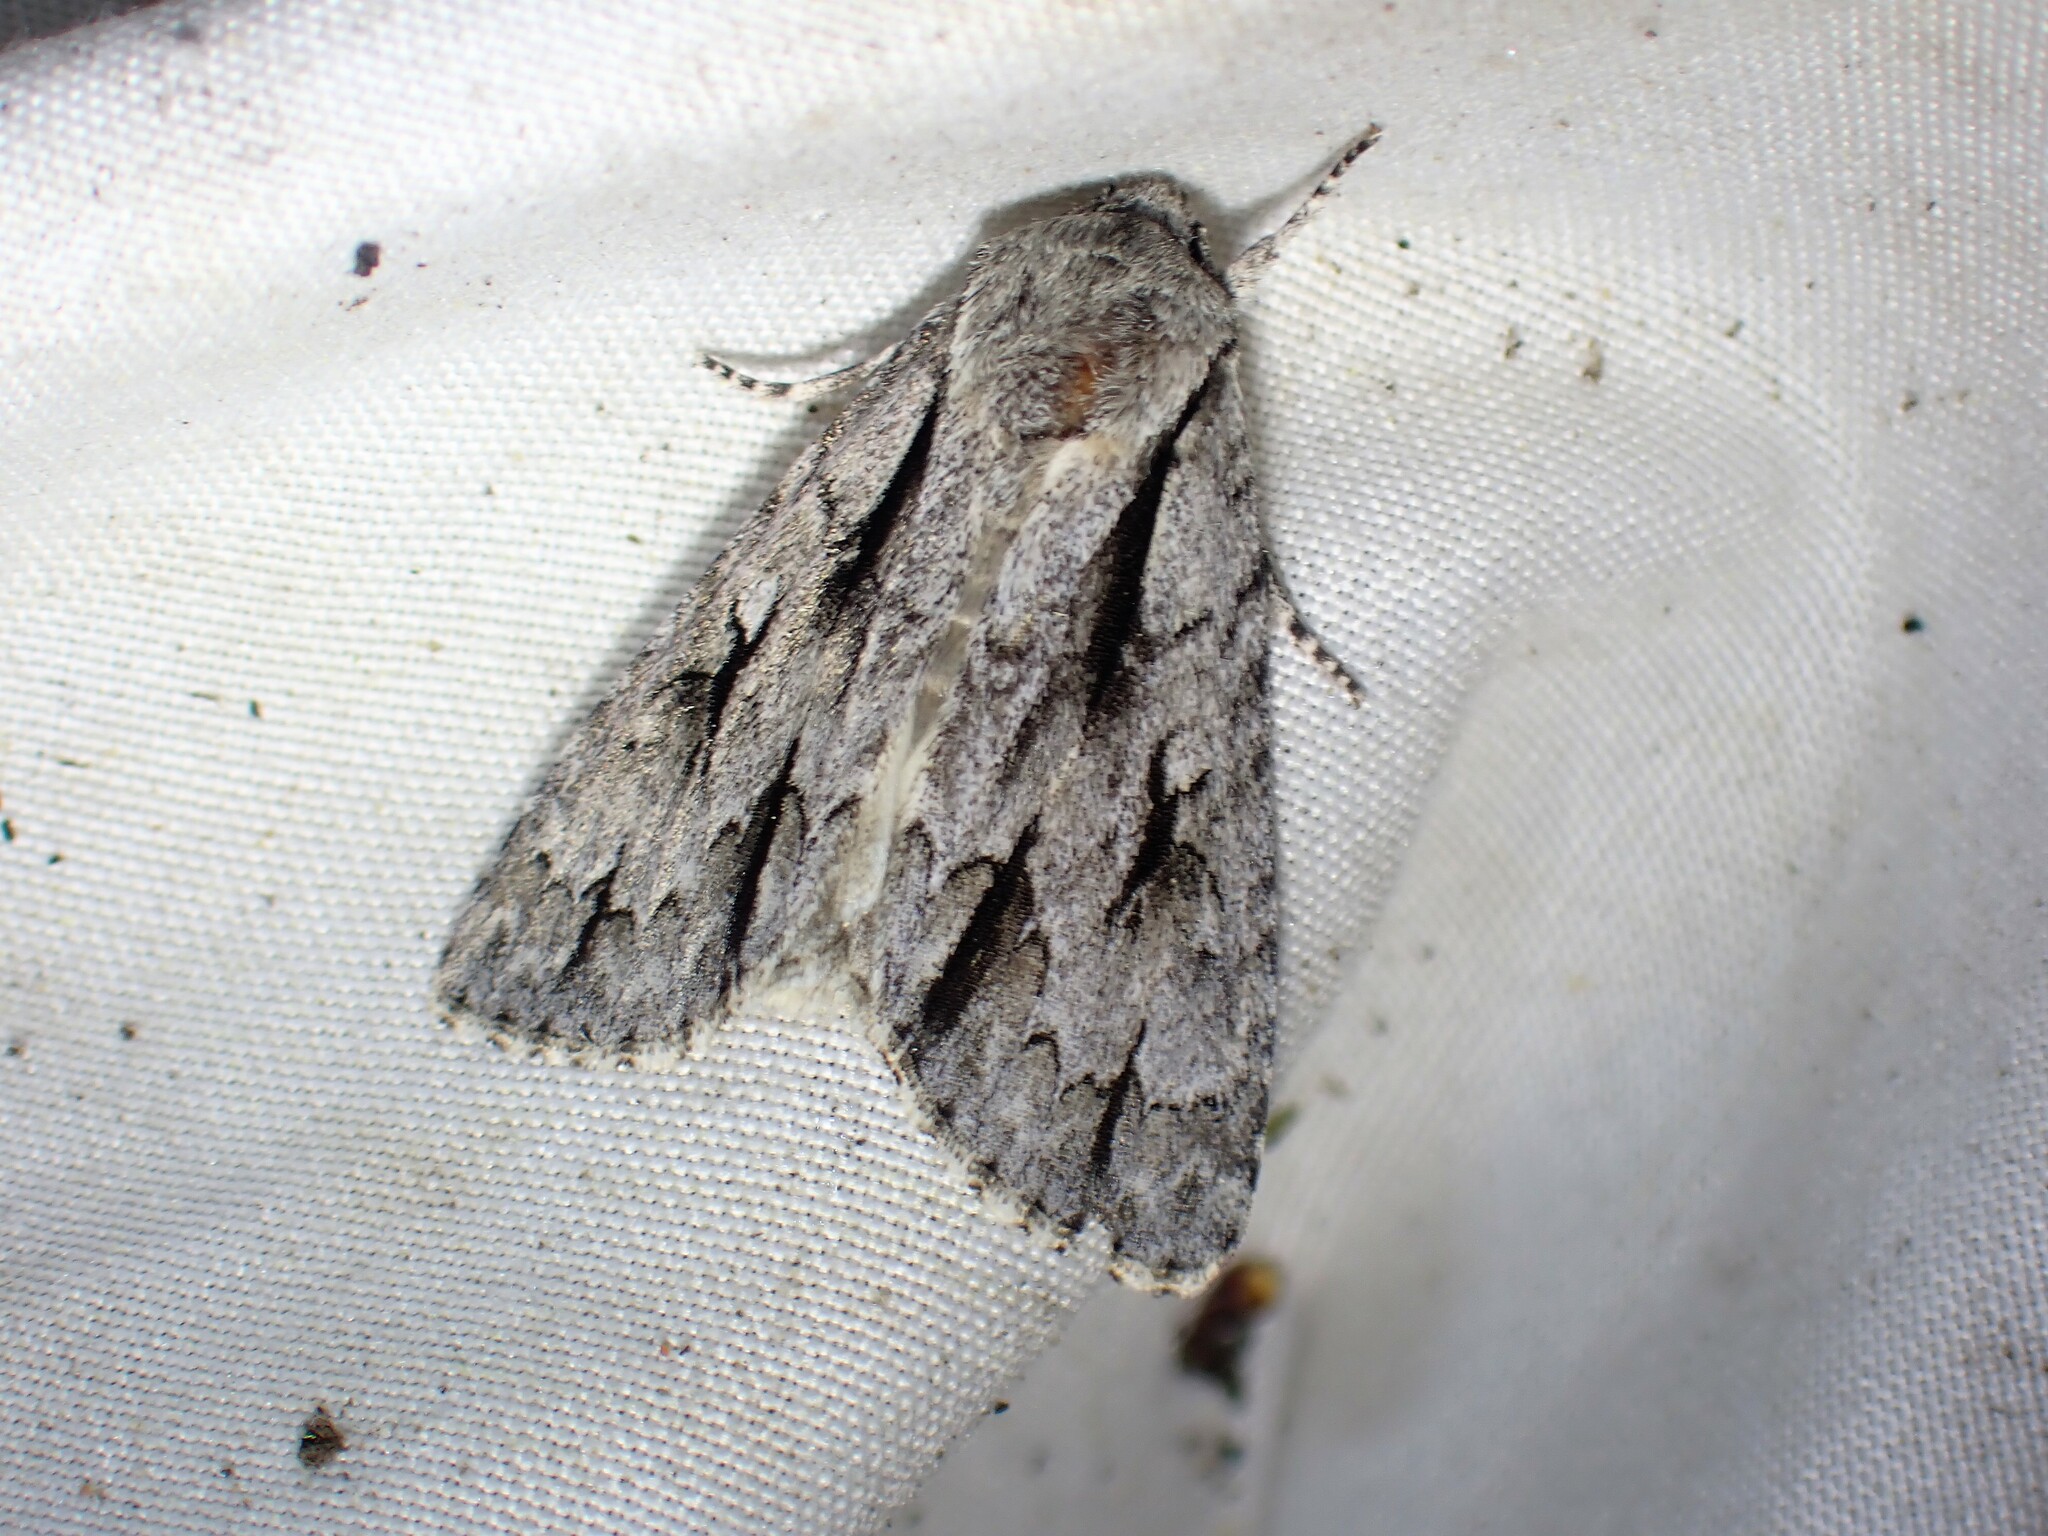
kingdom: Animalia
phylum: Arthropoda
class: Insecta
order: Lepidoptera
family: Noctuidae
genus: Acronicta
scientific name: Acronicta hasta
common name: Cherry dagger
